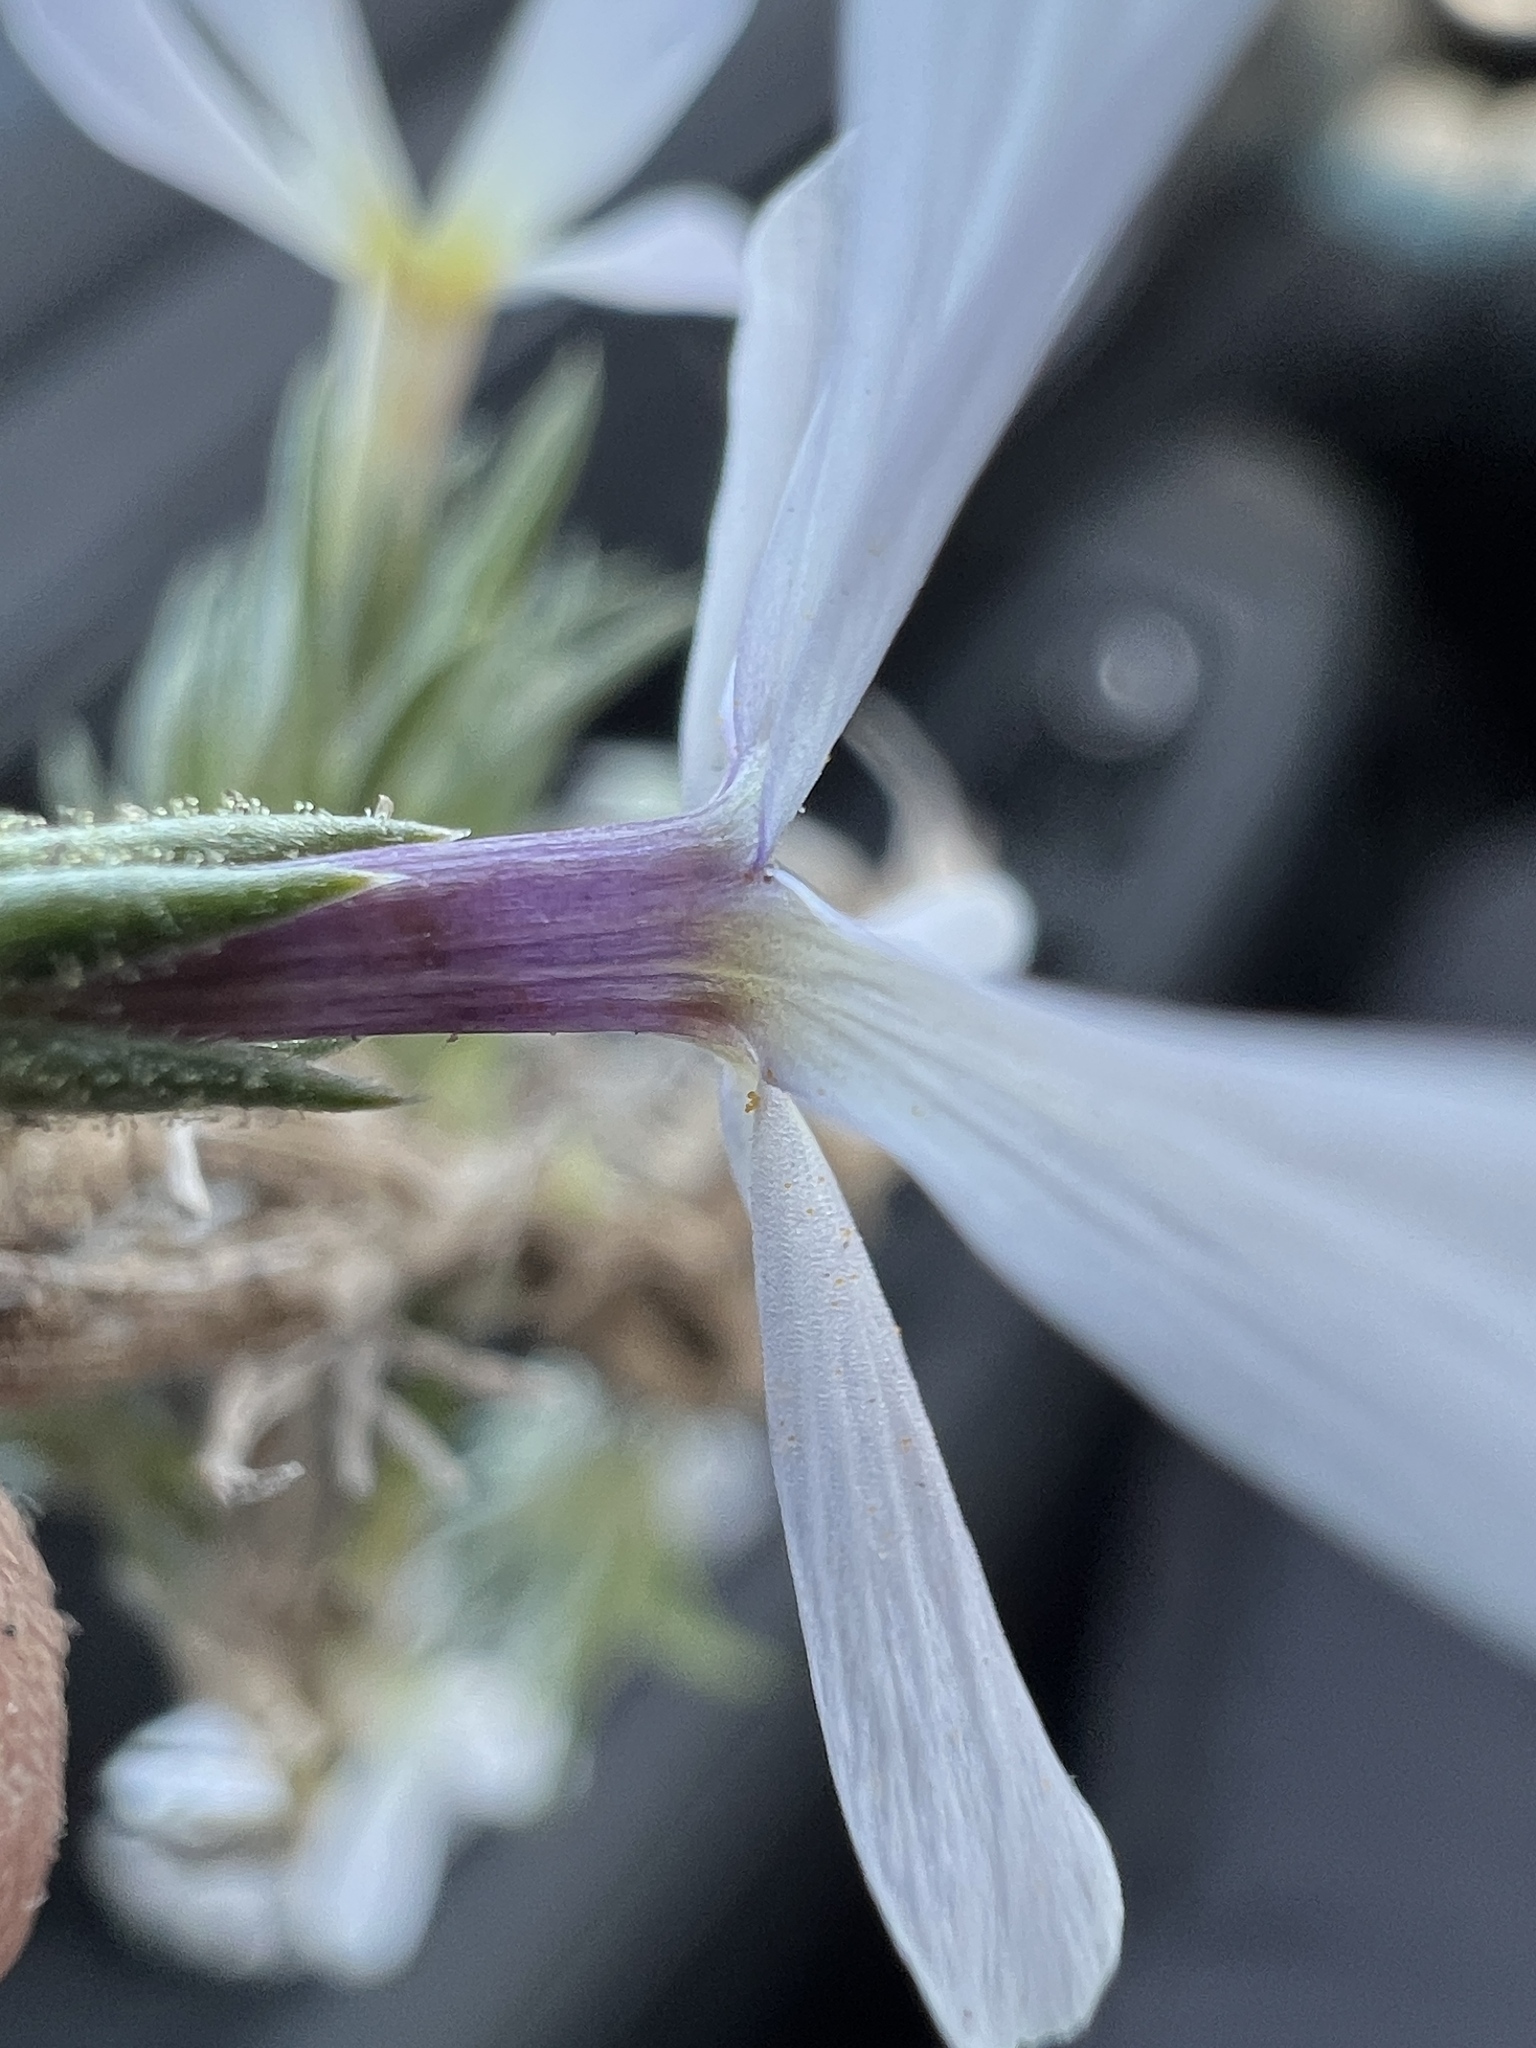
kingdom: Plantae
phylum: Tracheophyta
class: Magnoliopsida
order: Ericales
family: Polemoniaceae
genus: Phlox
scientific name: Phlox douglasii
